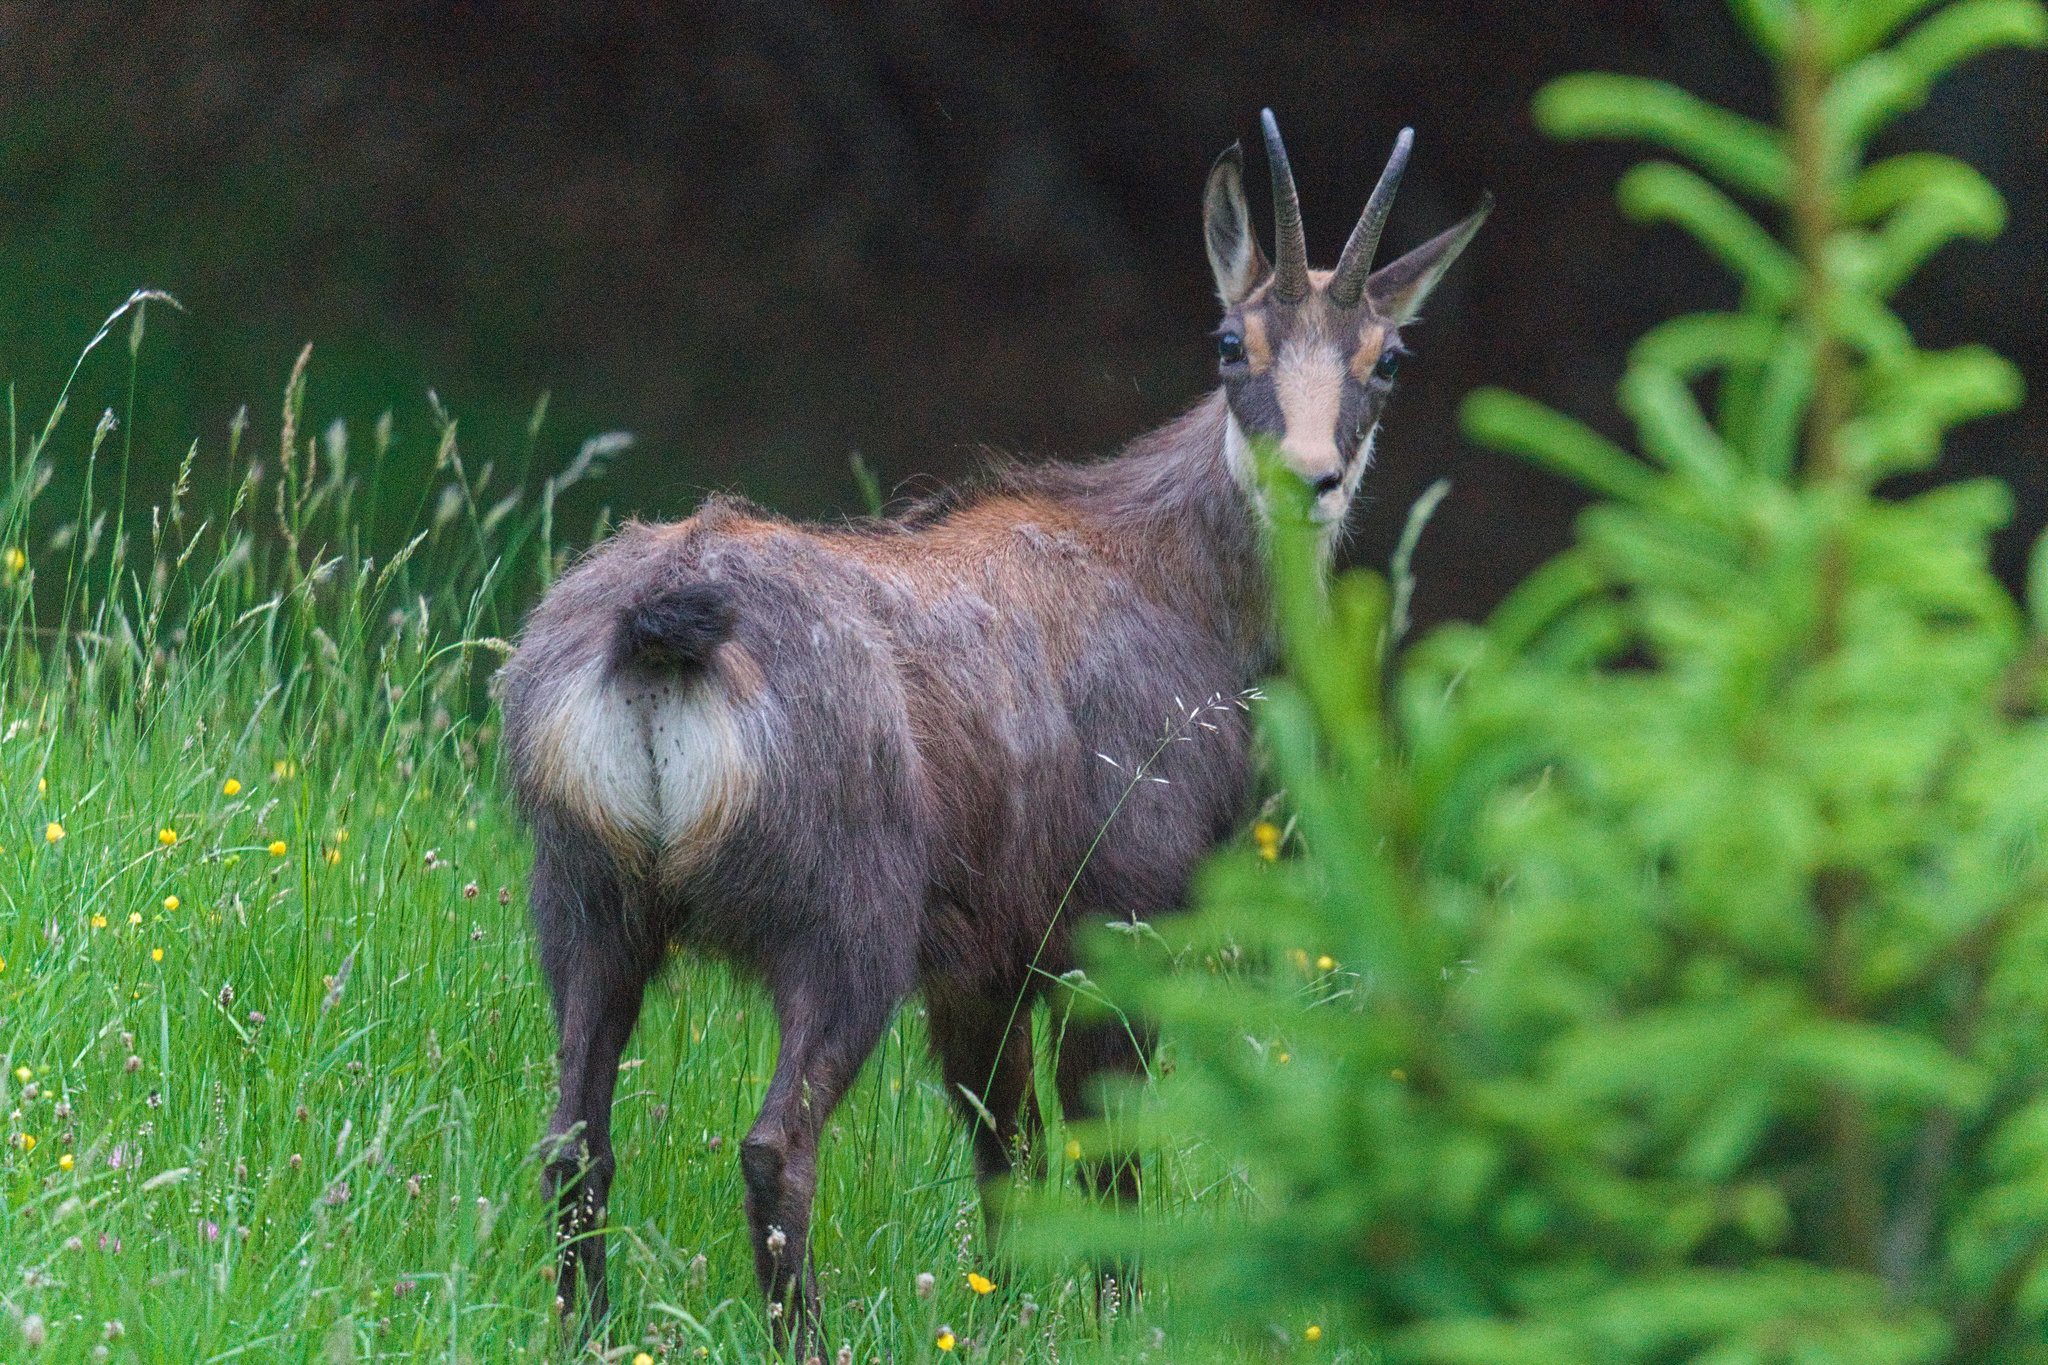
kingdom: Animalia
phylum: Chordata
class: Mammalia
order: Artiodactyla
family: Bovidae
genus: Rupicapra
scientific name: Rupicapra rupicapra
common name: Chamois
